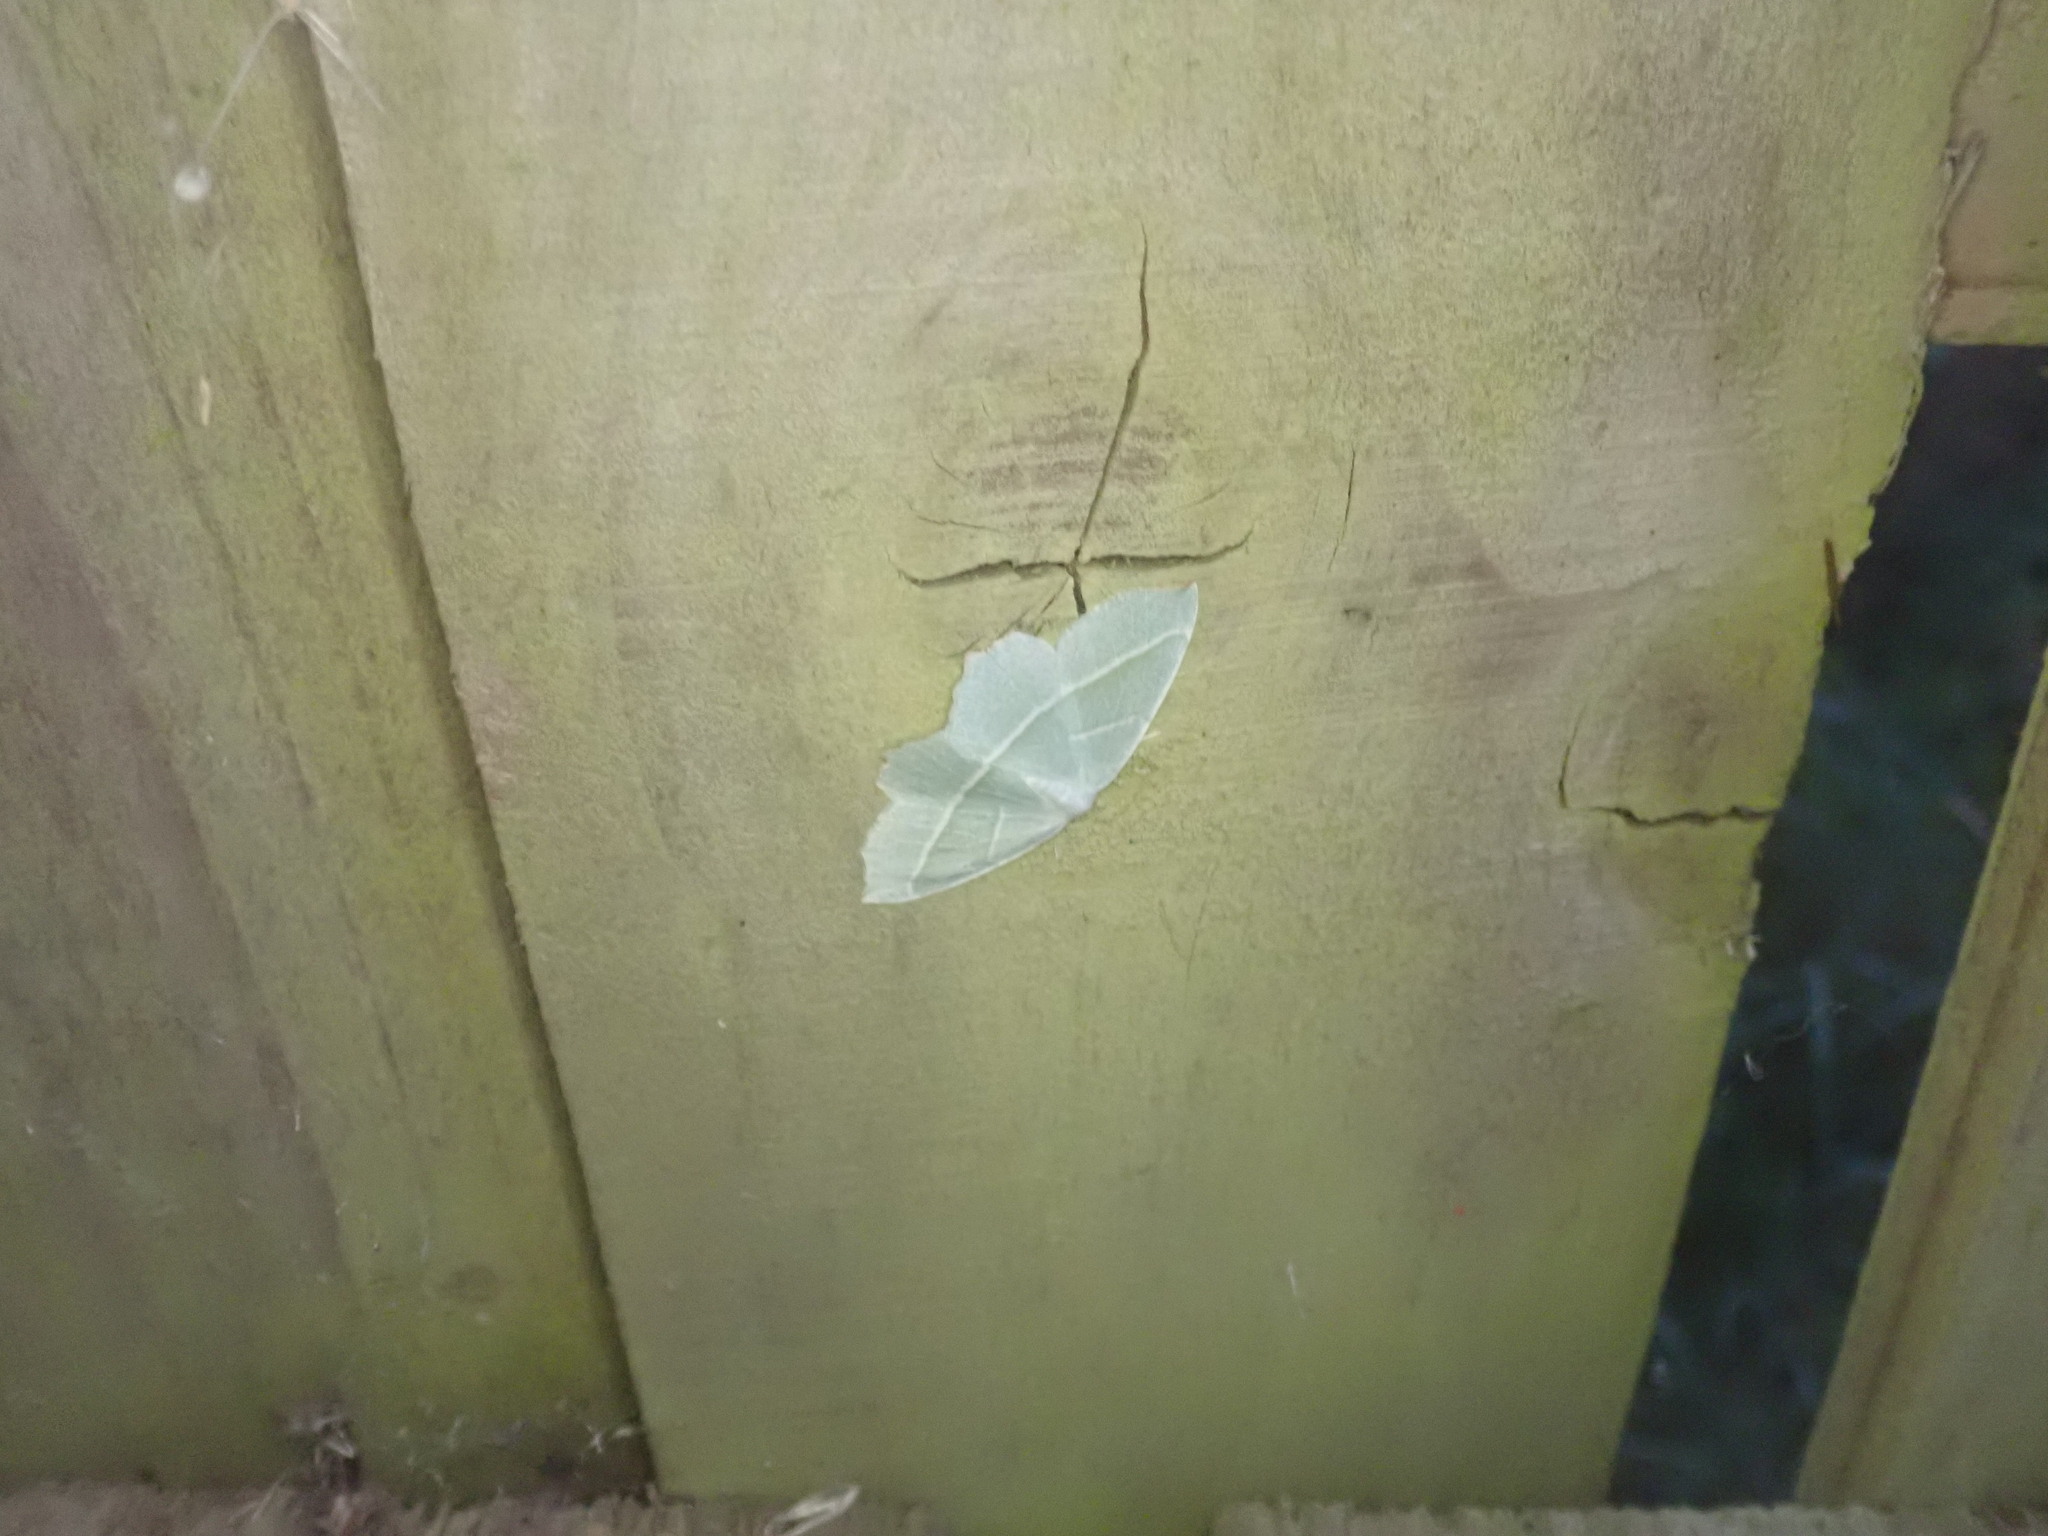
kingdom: Animalia
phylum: Arthropoda
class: Insecta
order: Lepidoptera
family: Geometridae
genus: Campaea
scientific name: Campaea margaritaria
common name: Light emerald
